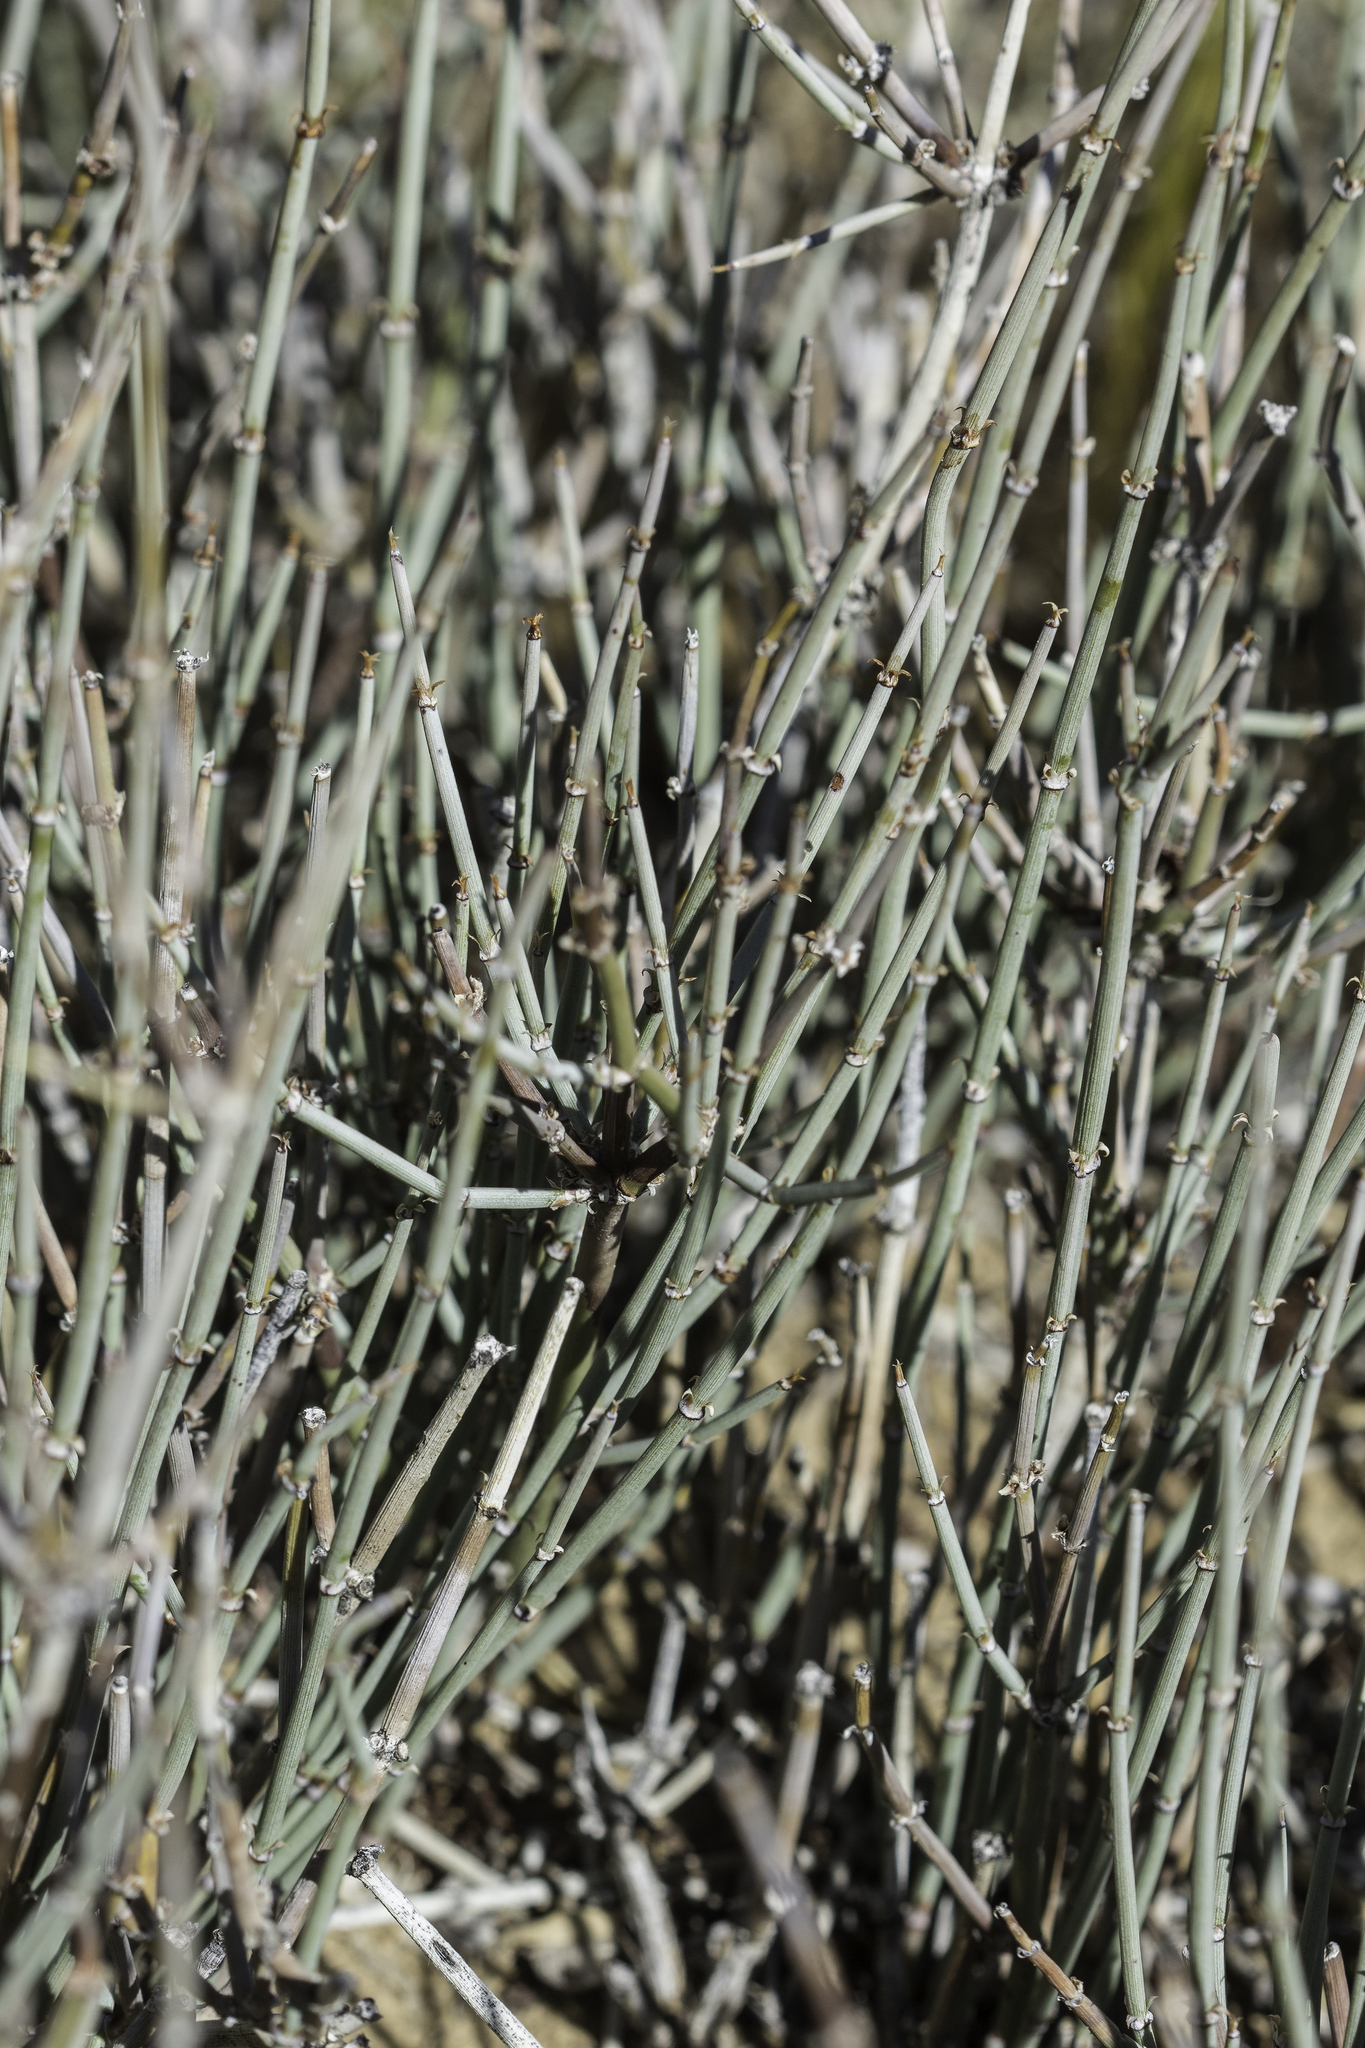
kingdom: Plantae
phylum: Tracheophyta
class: Gnetopsida
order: Ephedrales
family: Ephedraceae
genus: Ephedra
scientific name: Ephedra torreyana
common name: Torrey ephedra
